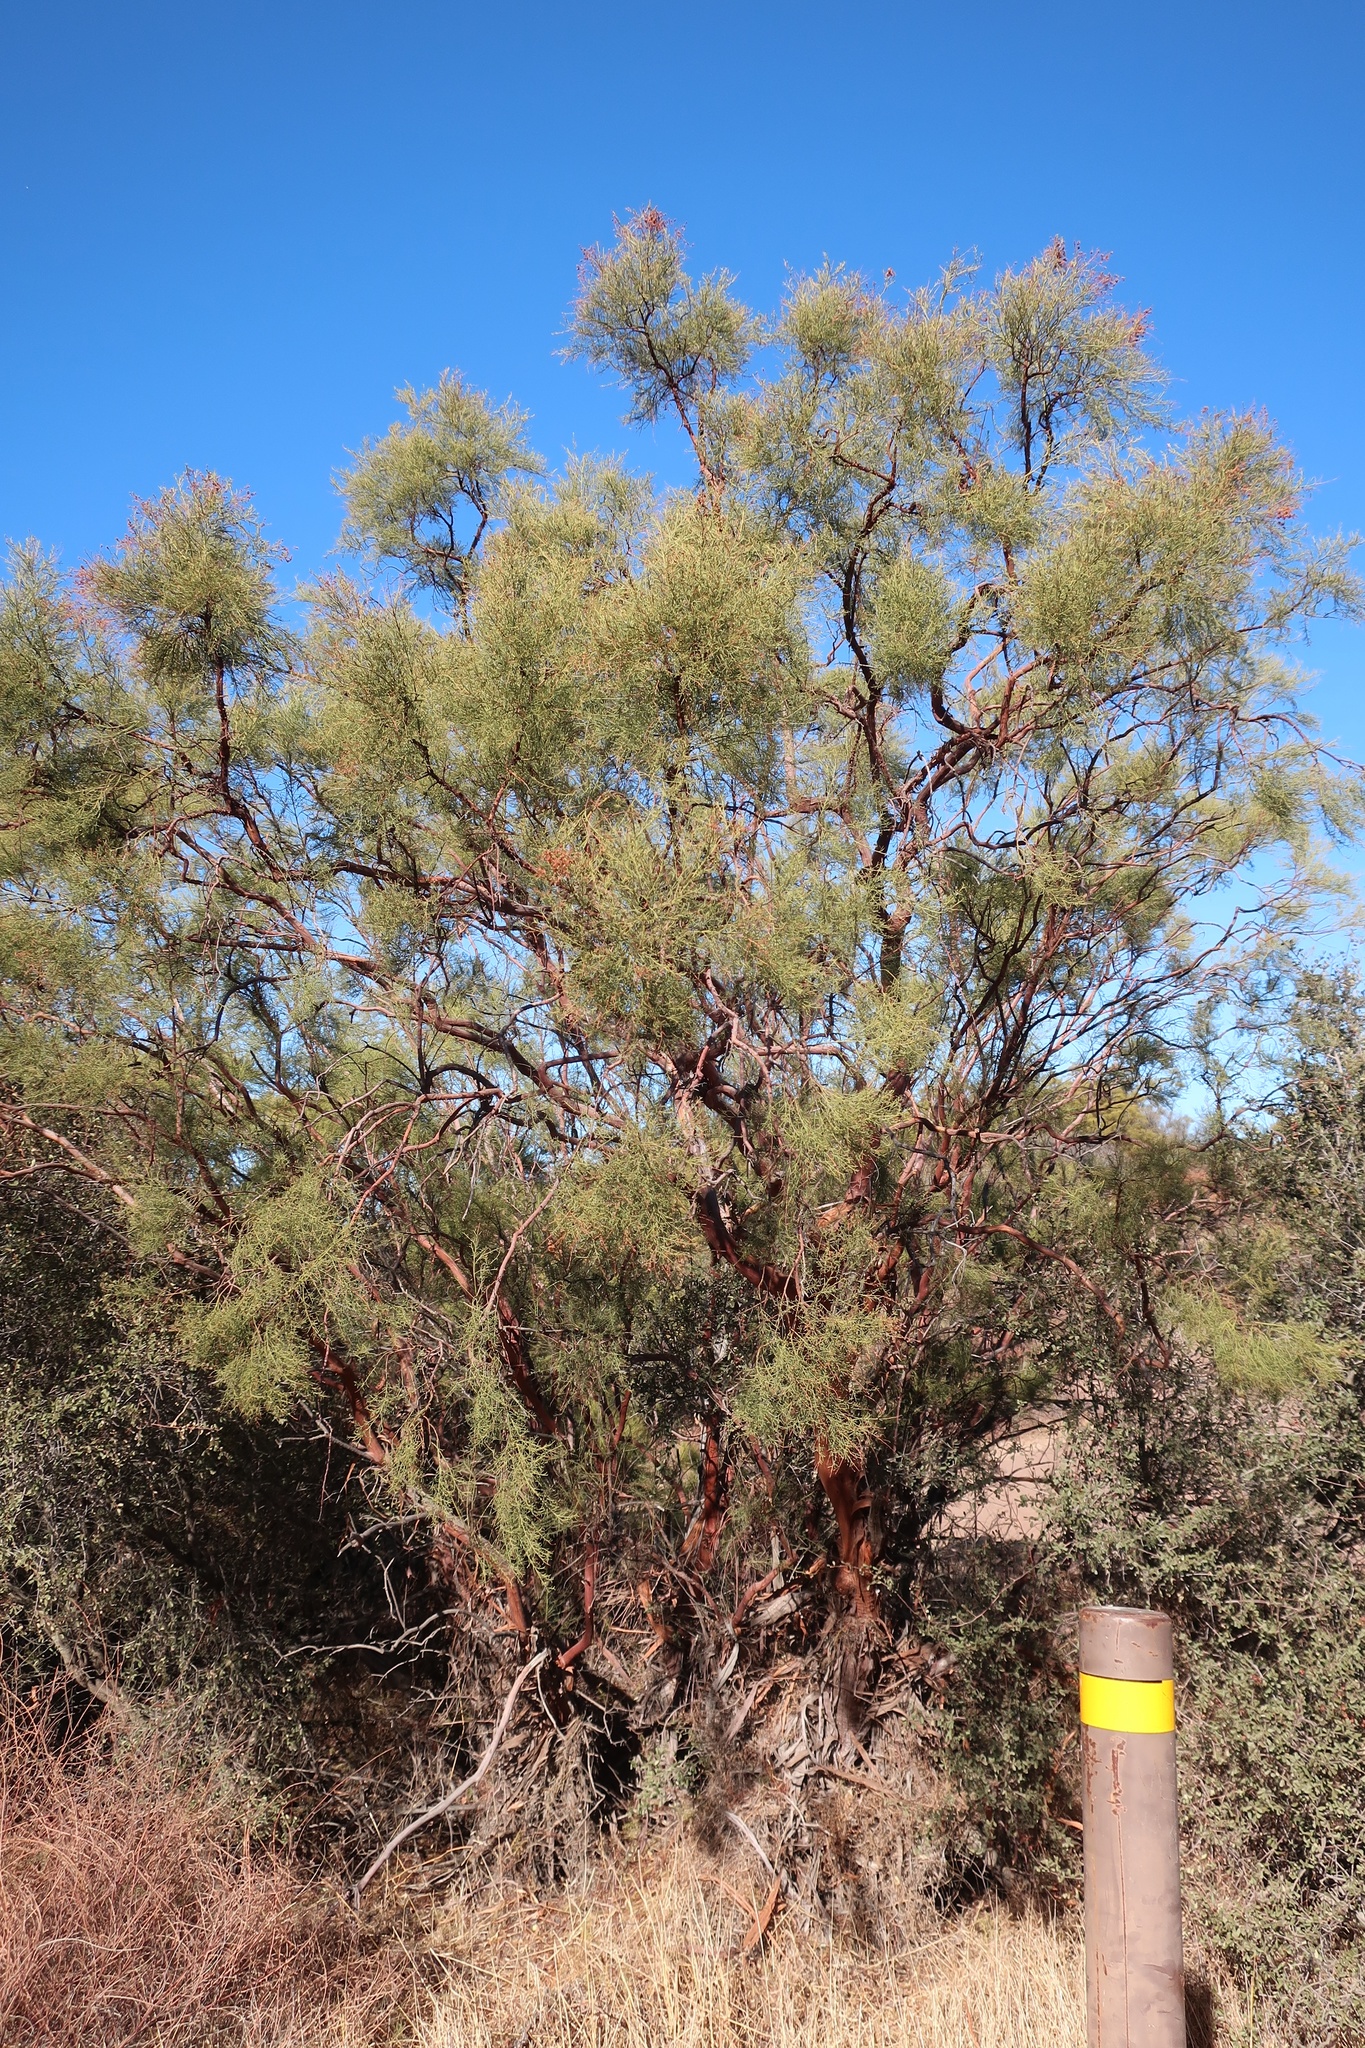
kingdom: Plantae
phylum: Tracheophyta
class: Magnoliopsida
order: Rosales
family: Rosaceae
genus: Adenostoma
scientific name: Adenostoma sparsifolium
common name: Red shank
